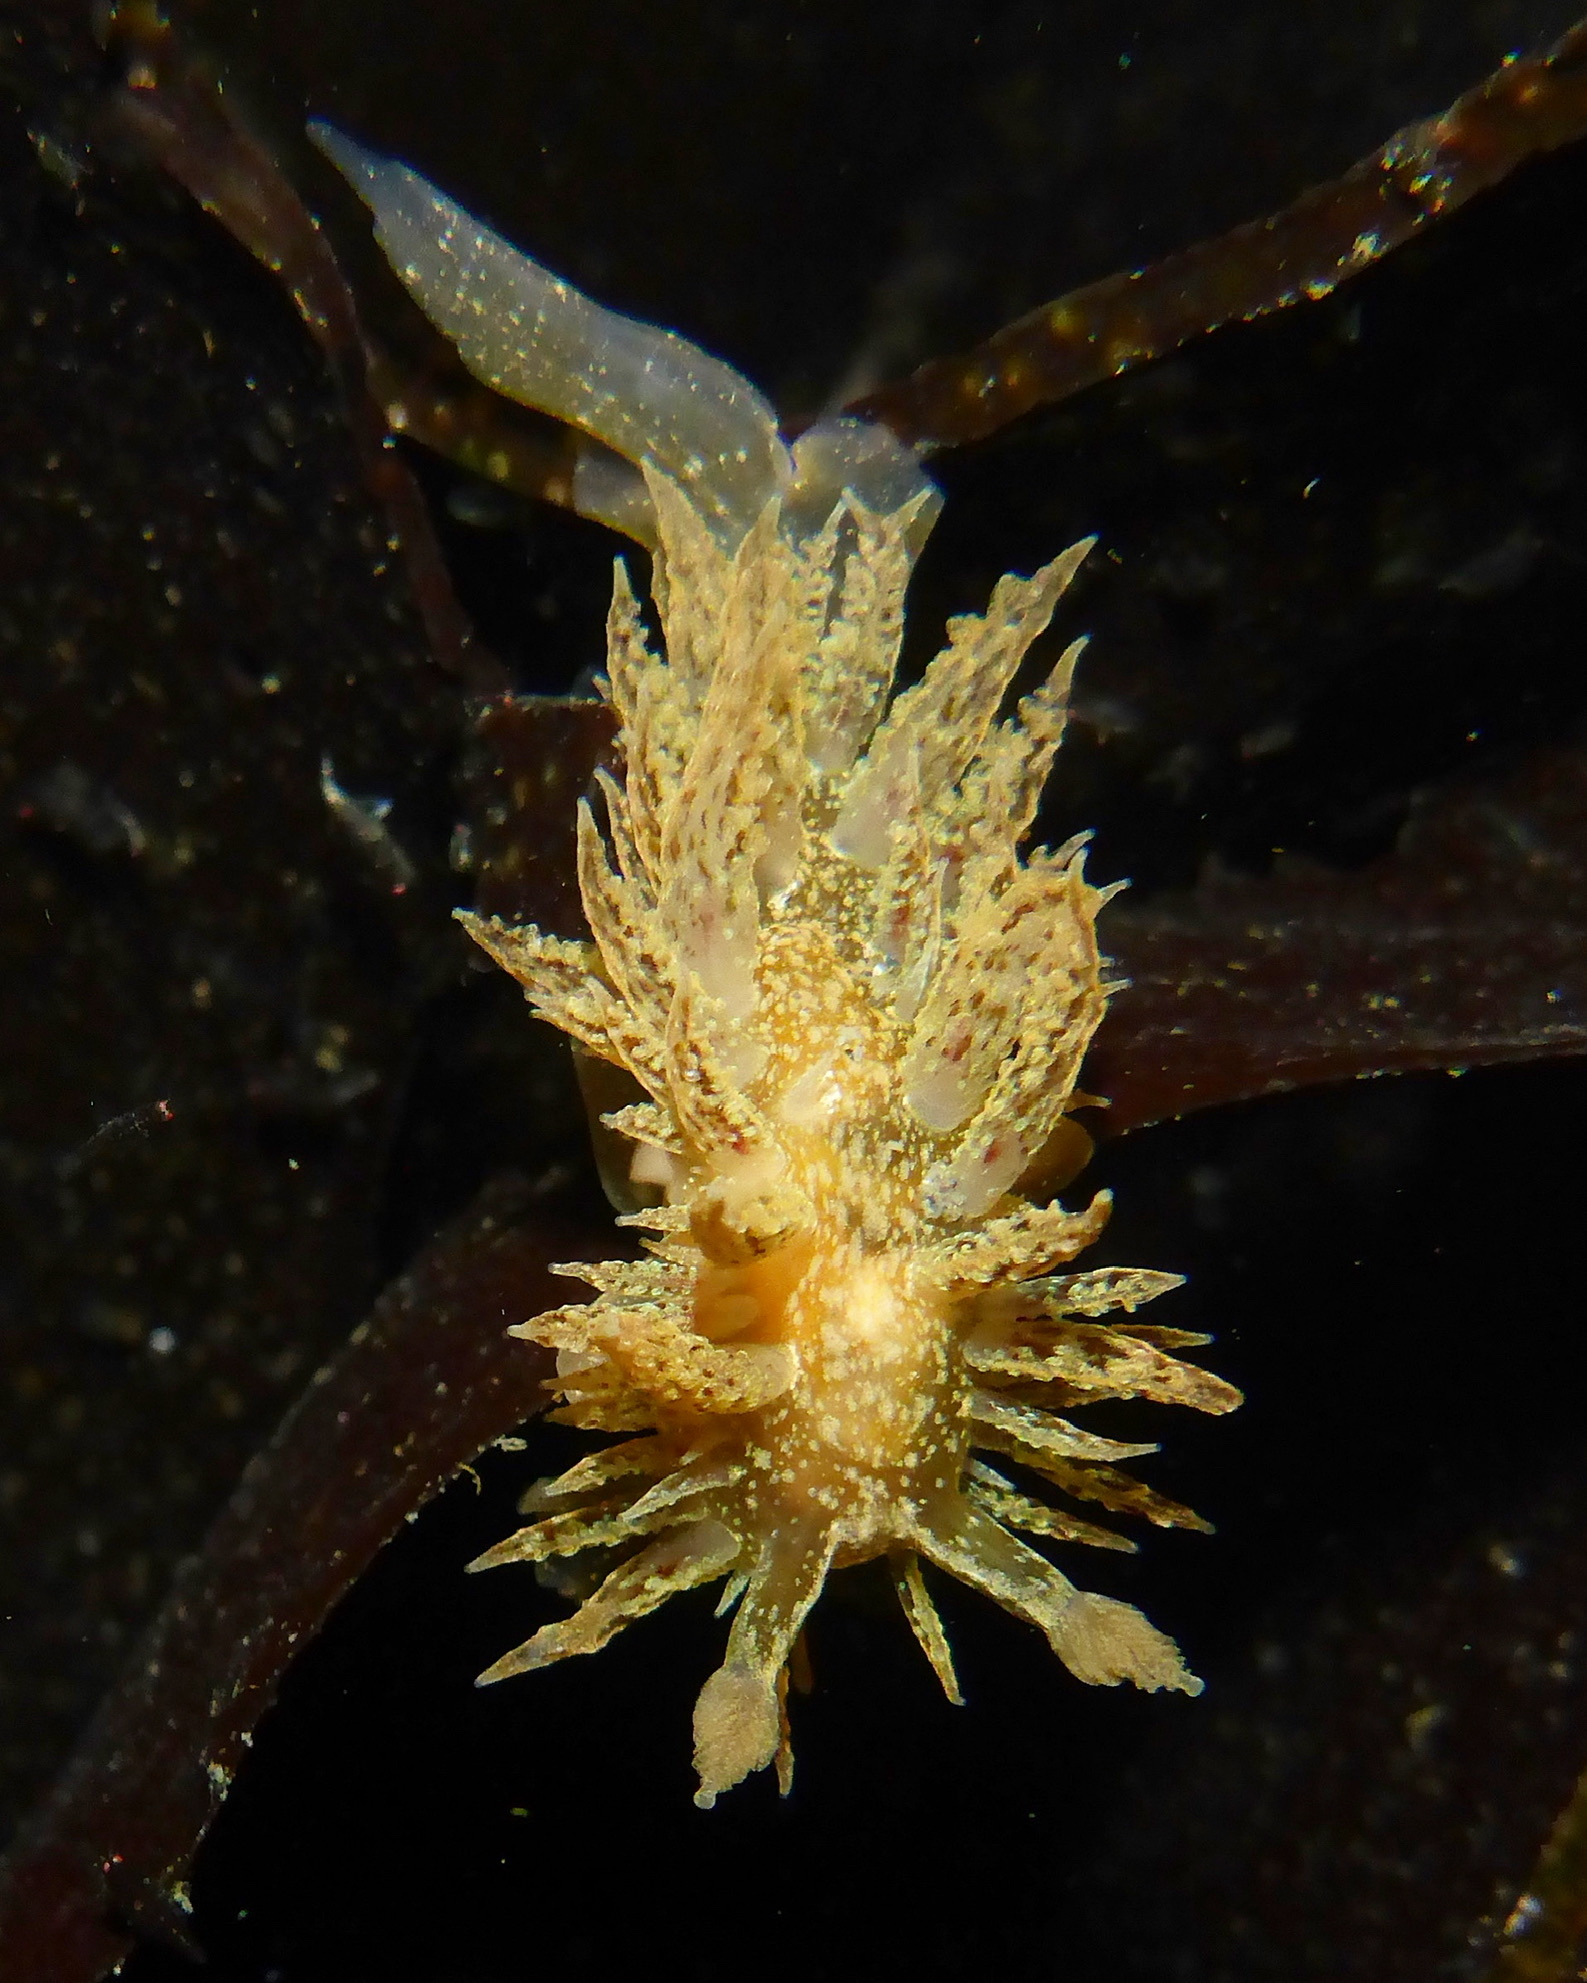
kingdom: Animalia
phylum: Mollusca
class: Gastropoda
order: Nudibranchia
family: Dironidae
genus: Dirona
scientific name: Dirona picta
